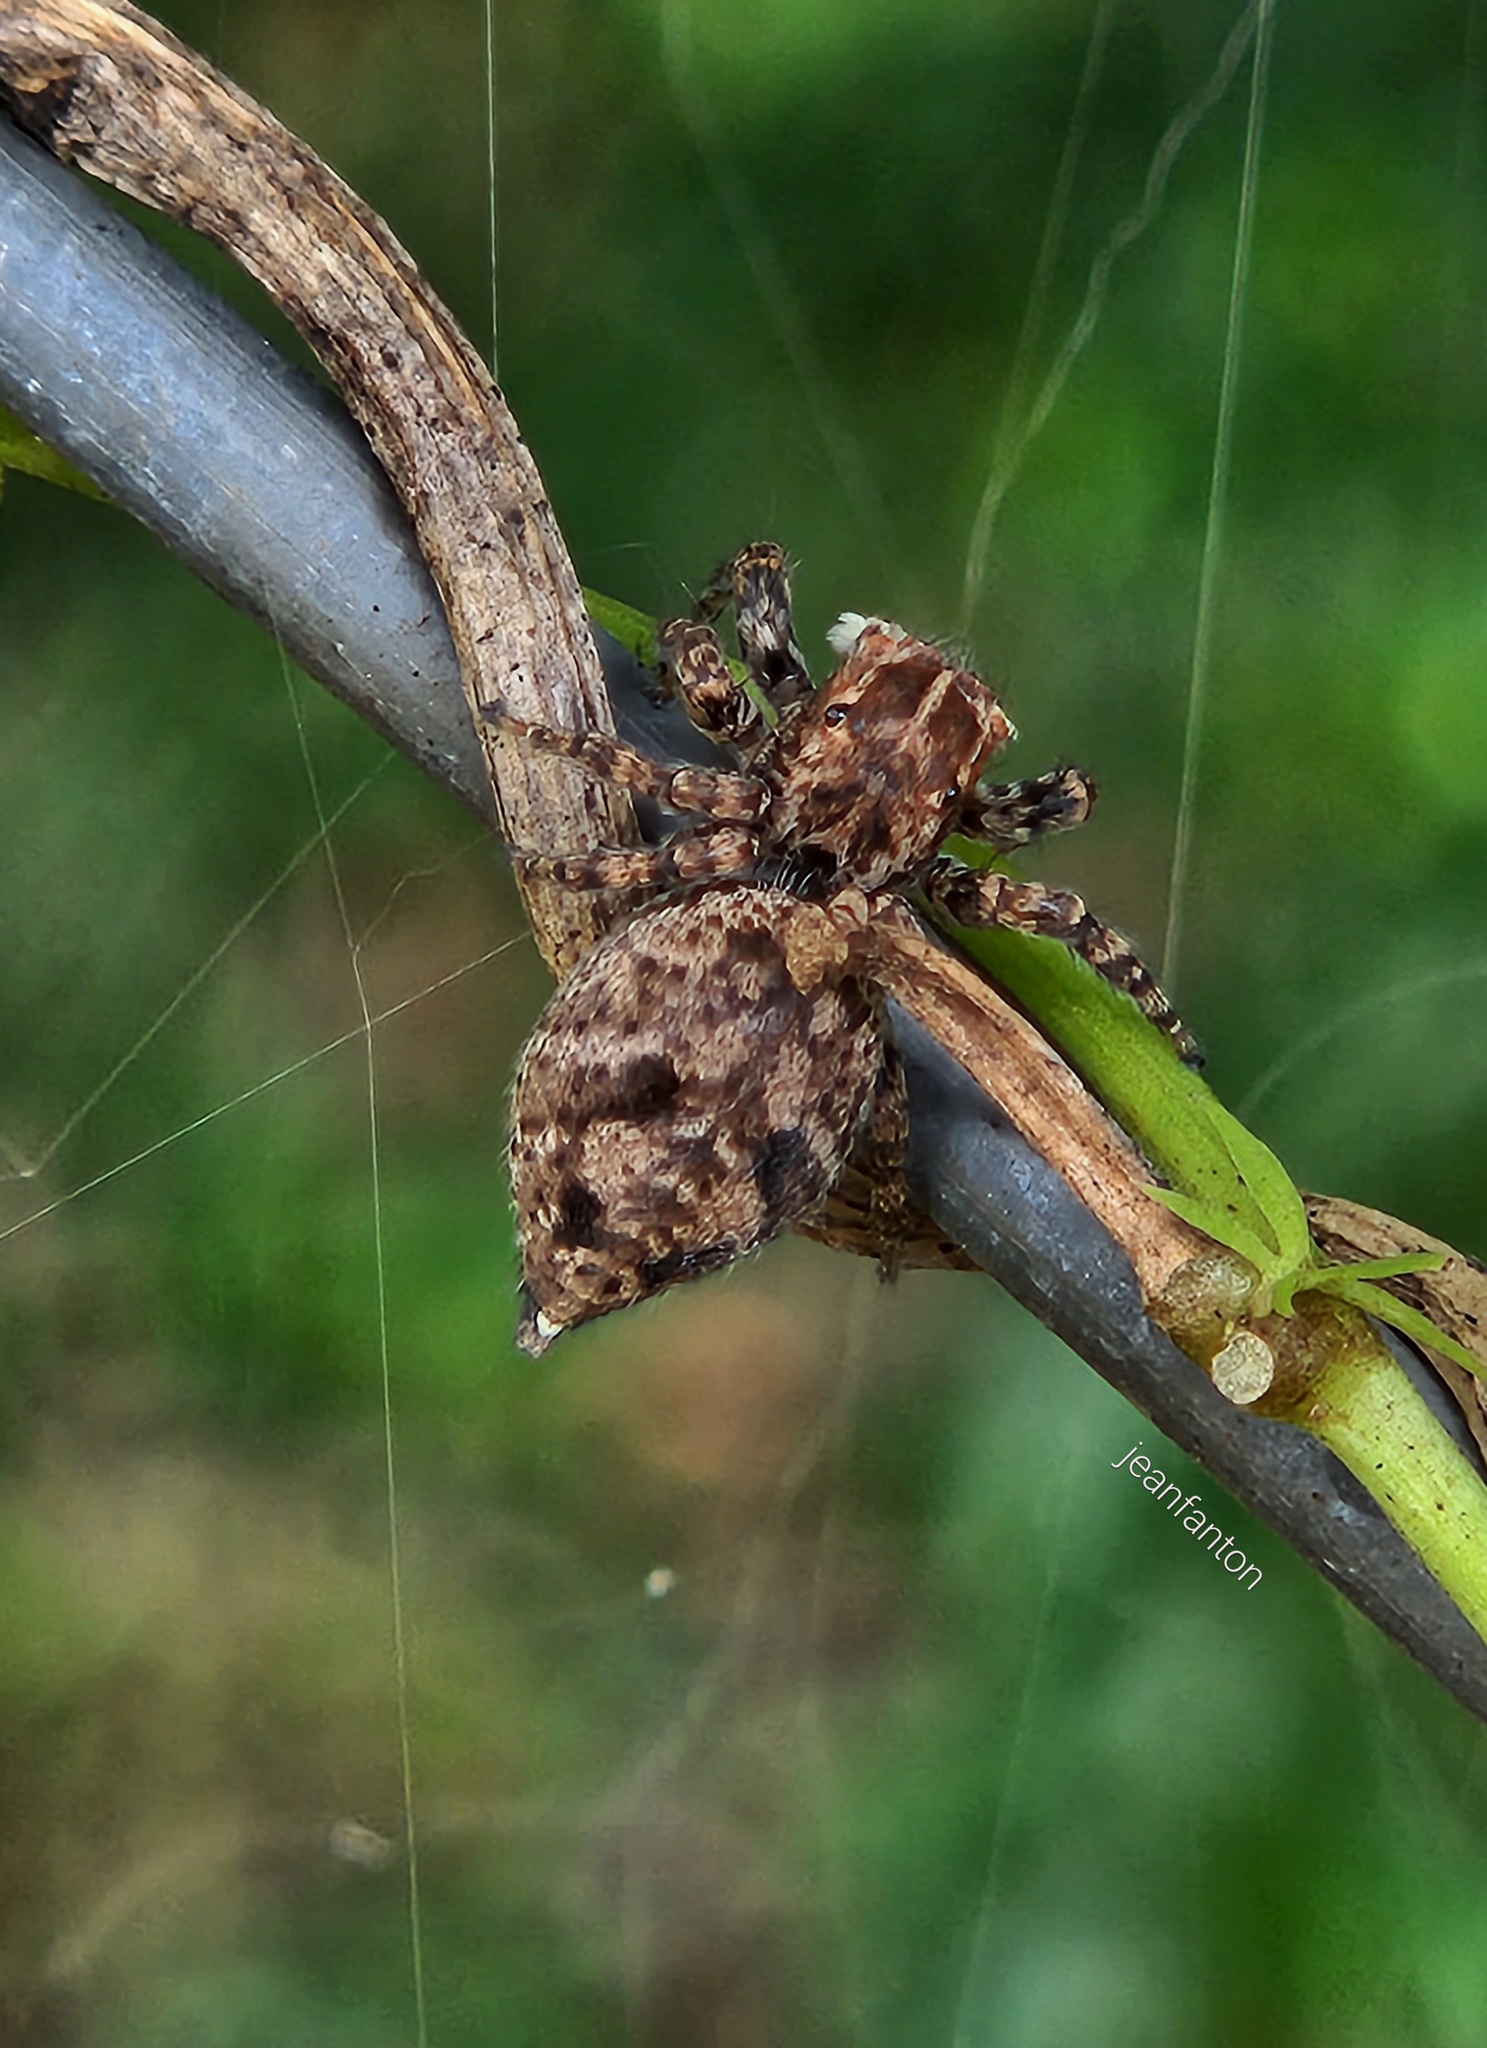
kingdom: Animalia
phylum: Arthropoda
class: Arachnida
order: Araneae
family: Salticidae
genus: Sumampattus
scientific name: Sumampattus quinqueradiatus
